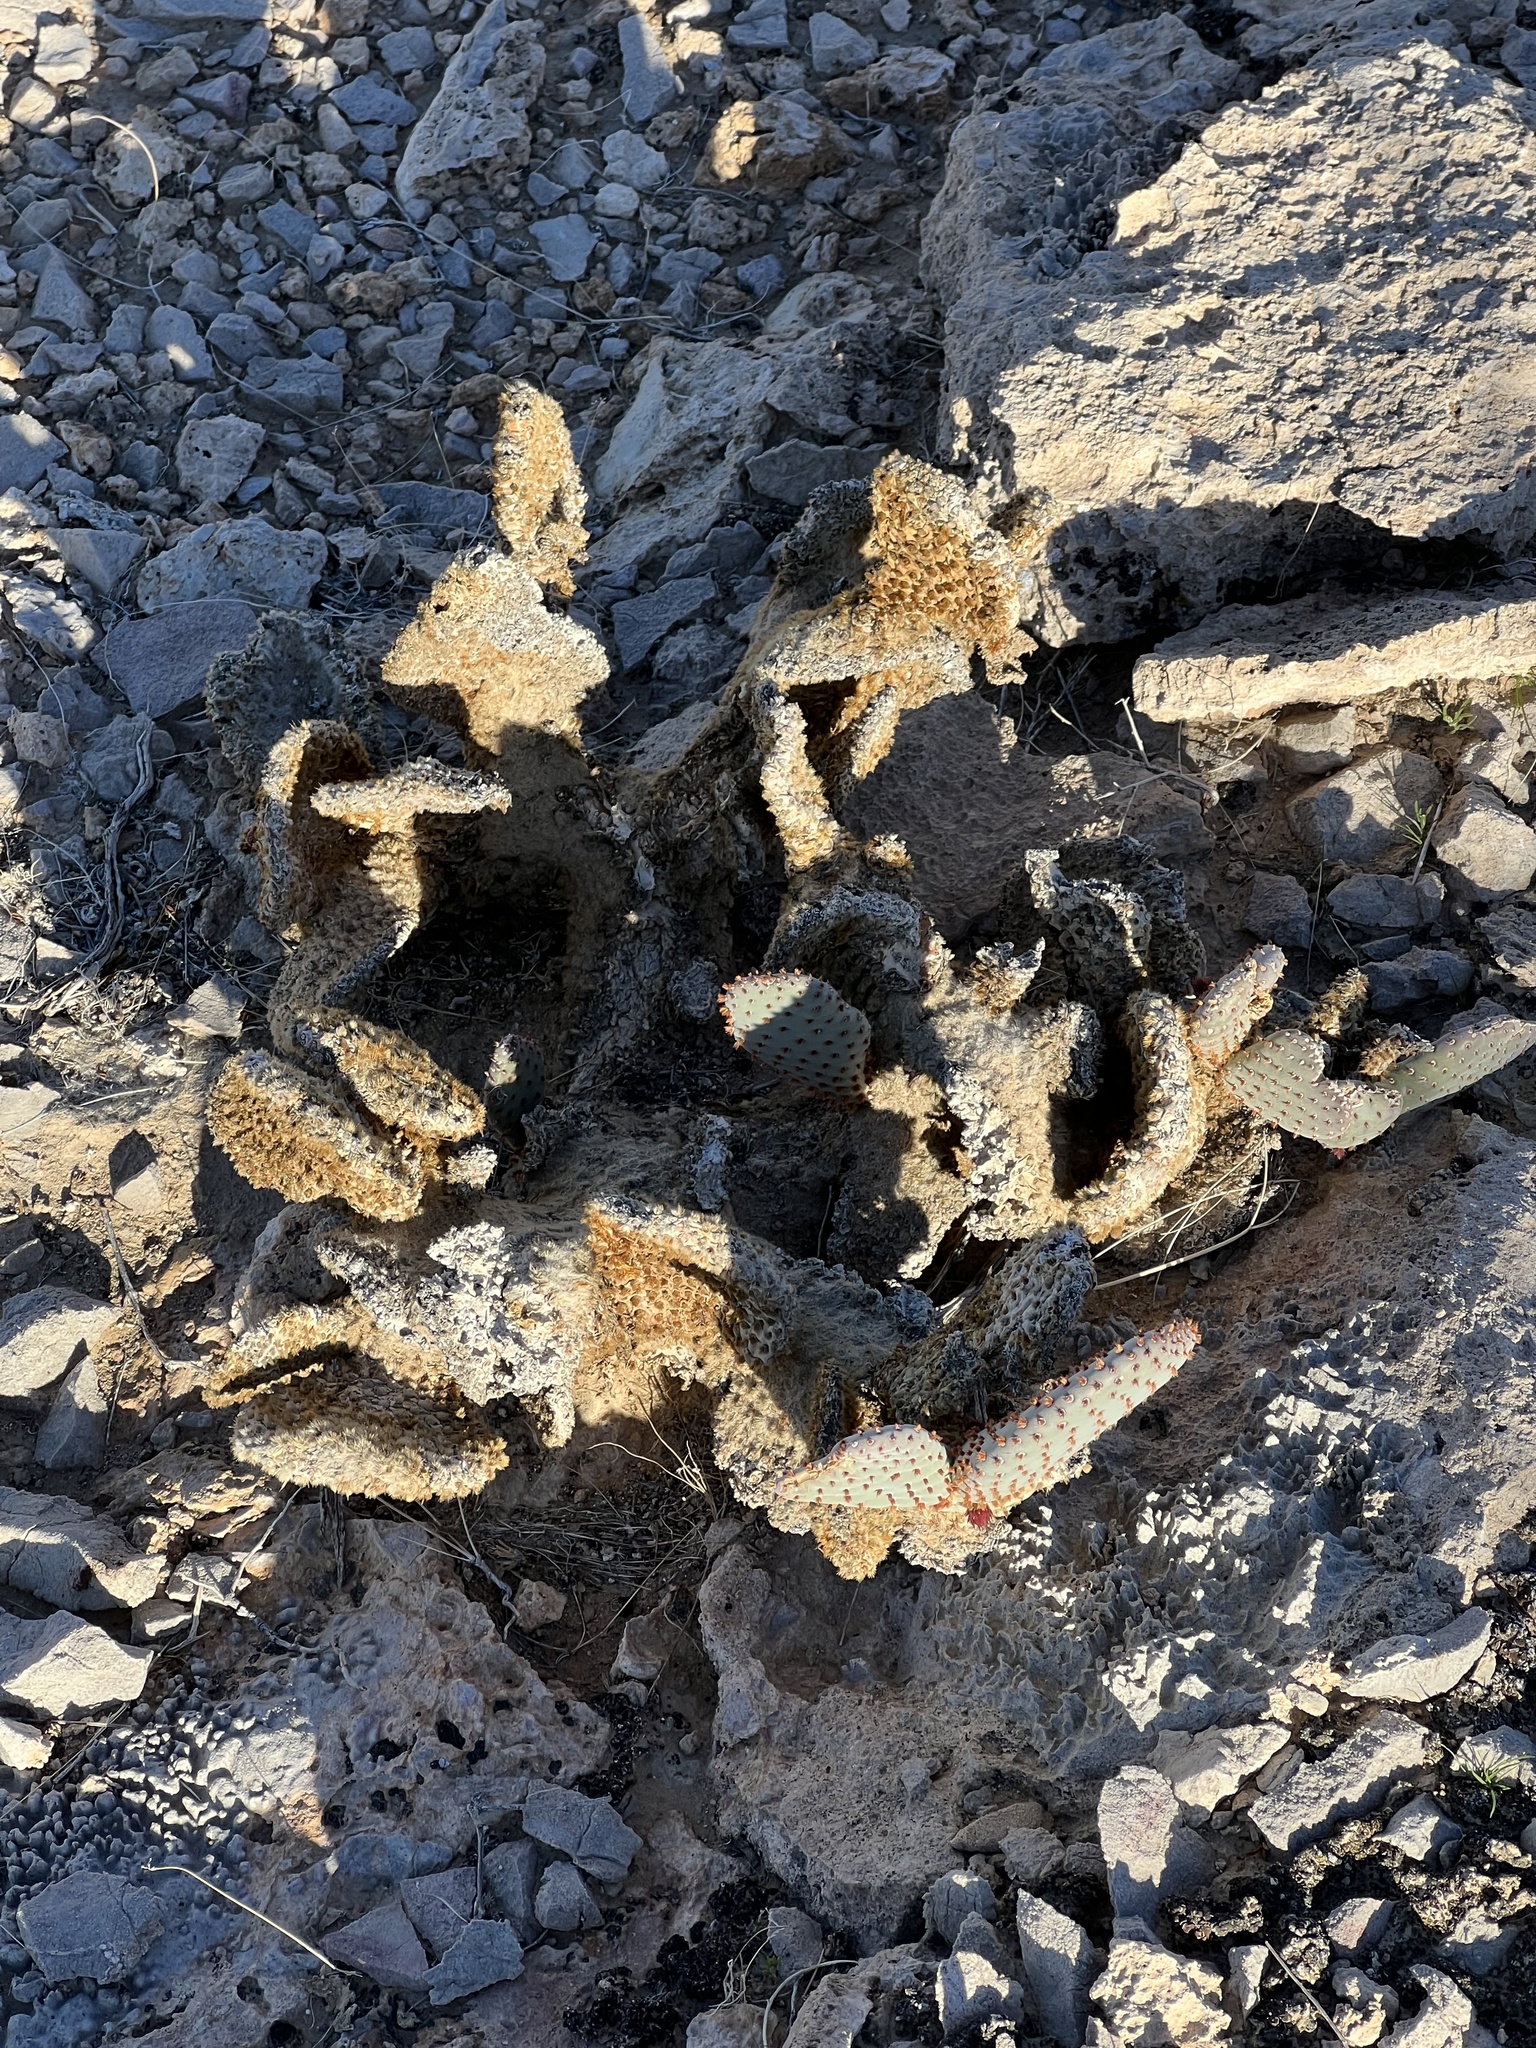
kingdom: Plantae
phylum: Tracheophyta
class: Magnoliopsida
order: Caryophyllales
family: Cactaceae
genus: Opuntia
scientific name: Opuntia basilaris
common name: Beavertail prickly-pear
